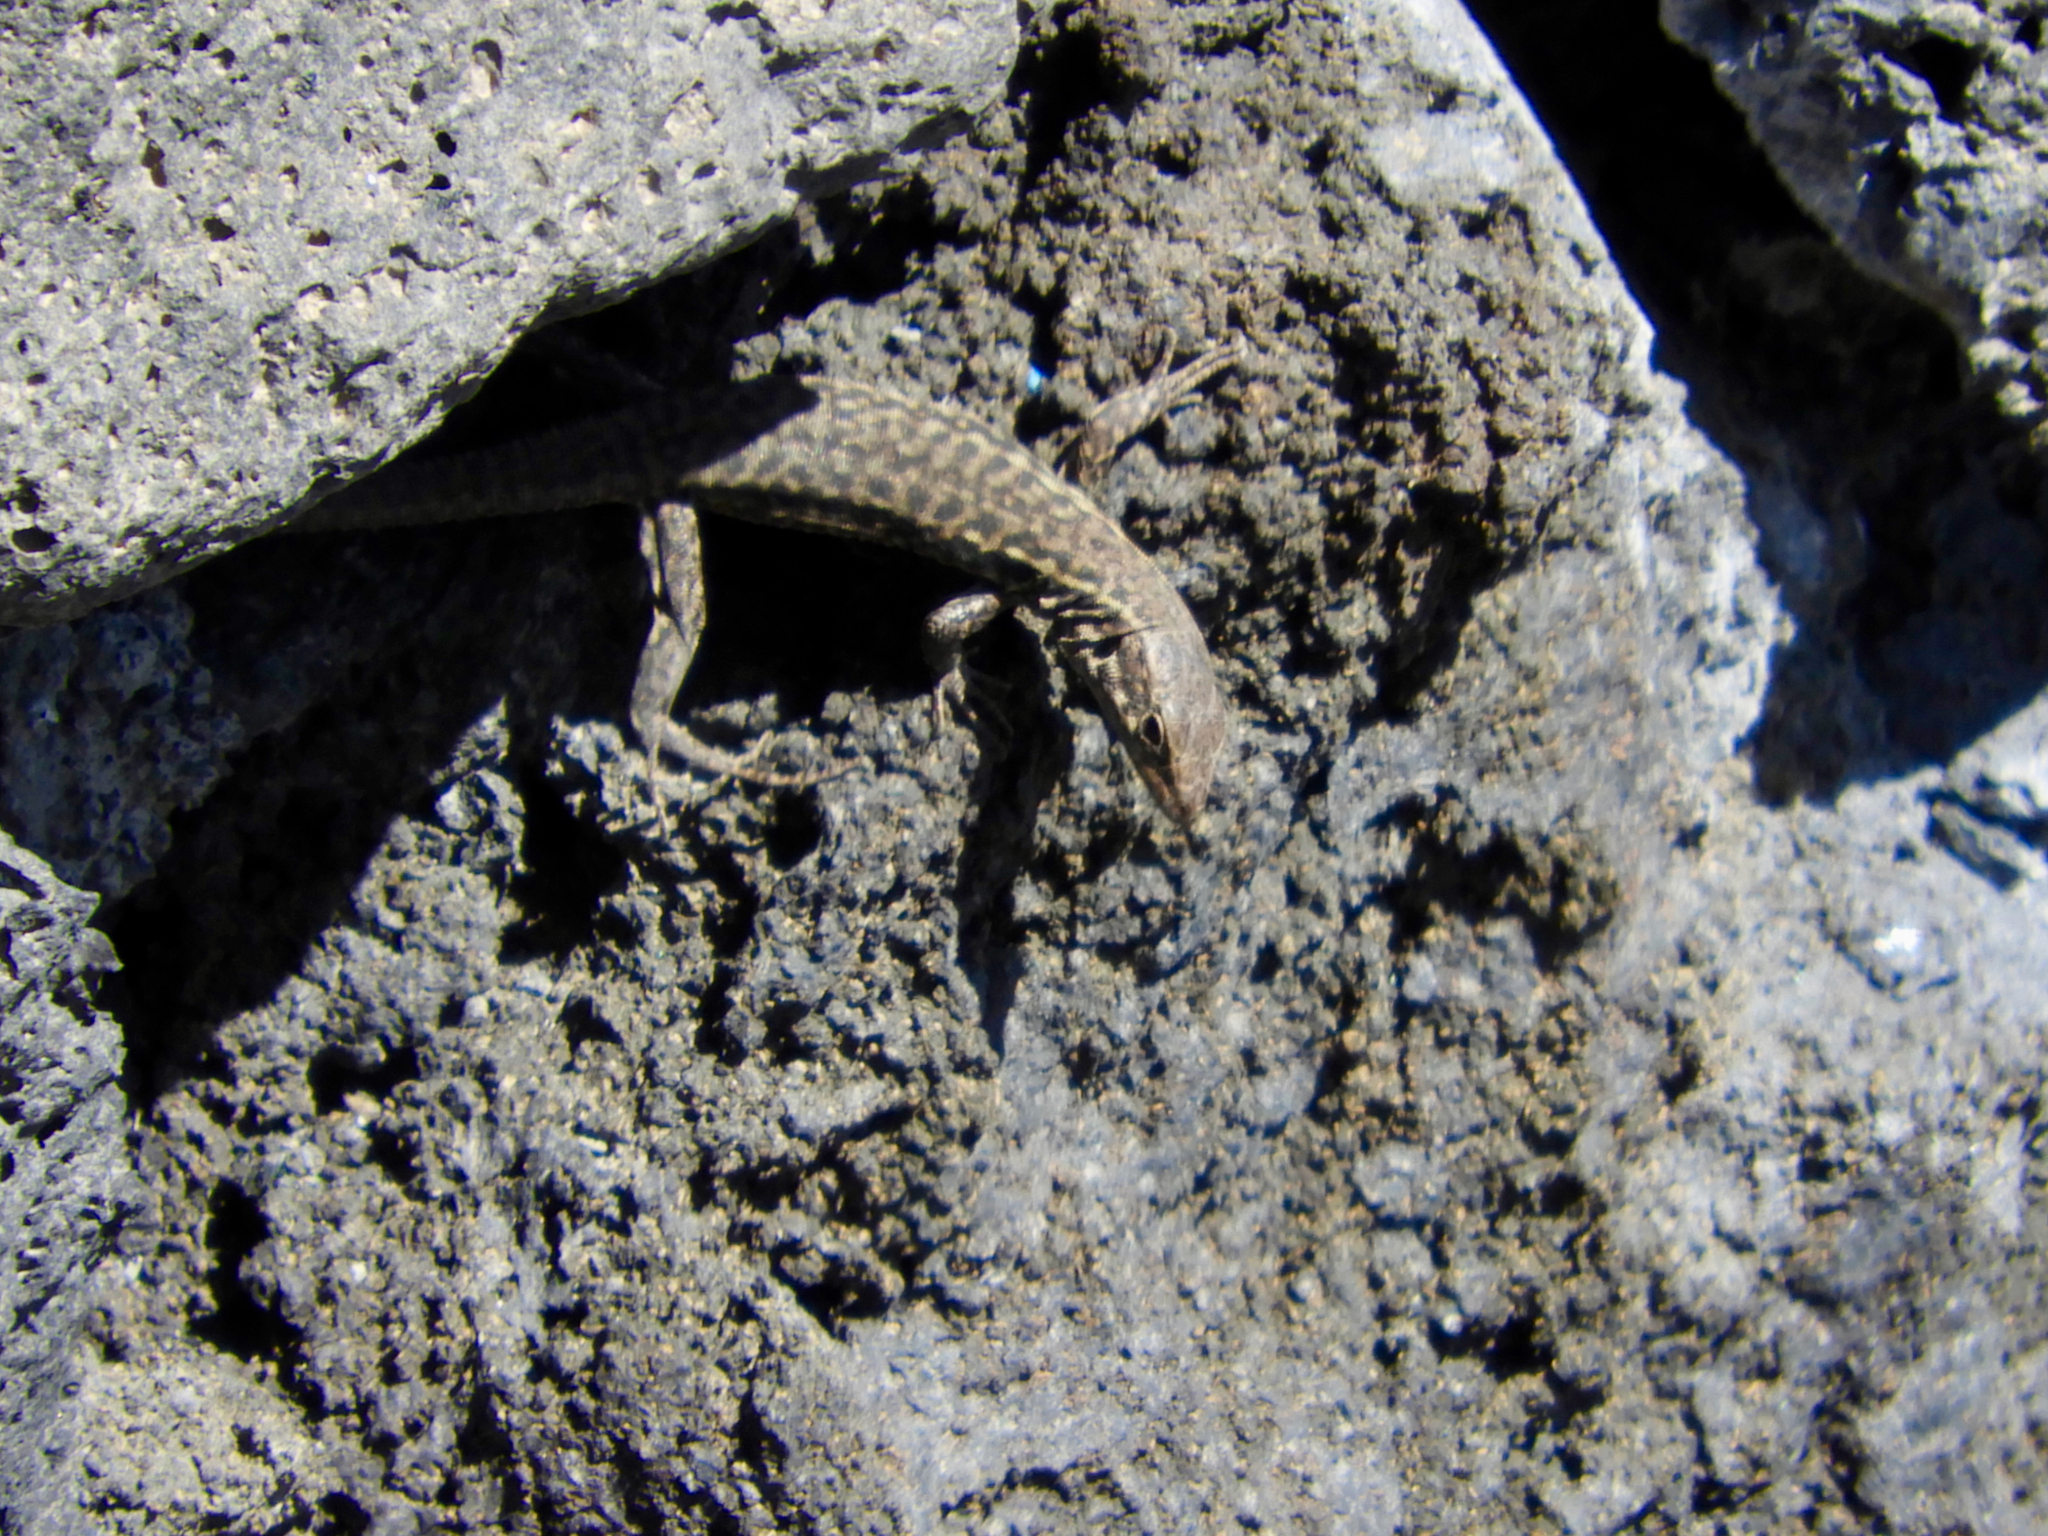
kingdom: Animalia
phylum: Chordata
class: Squamata
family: Lacertidae
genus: Podarcis
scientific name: Podarcis siculus
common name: Italian wall lizard
